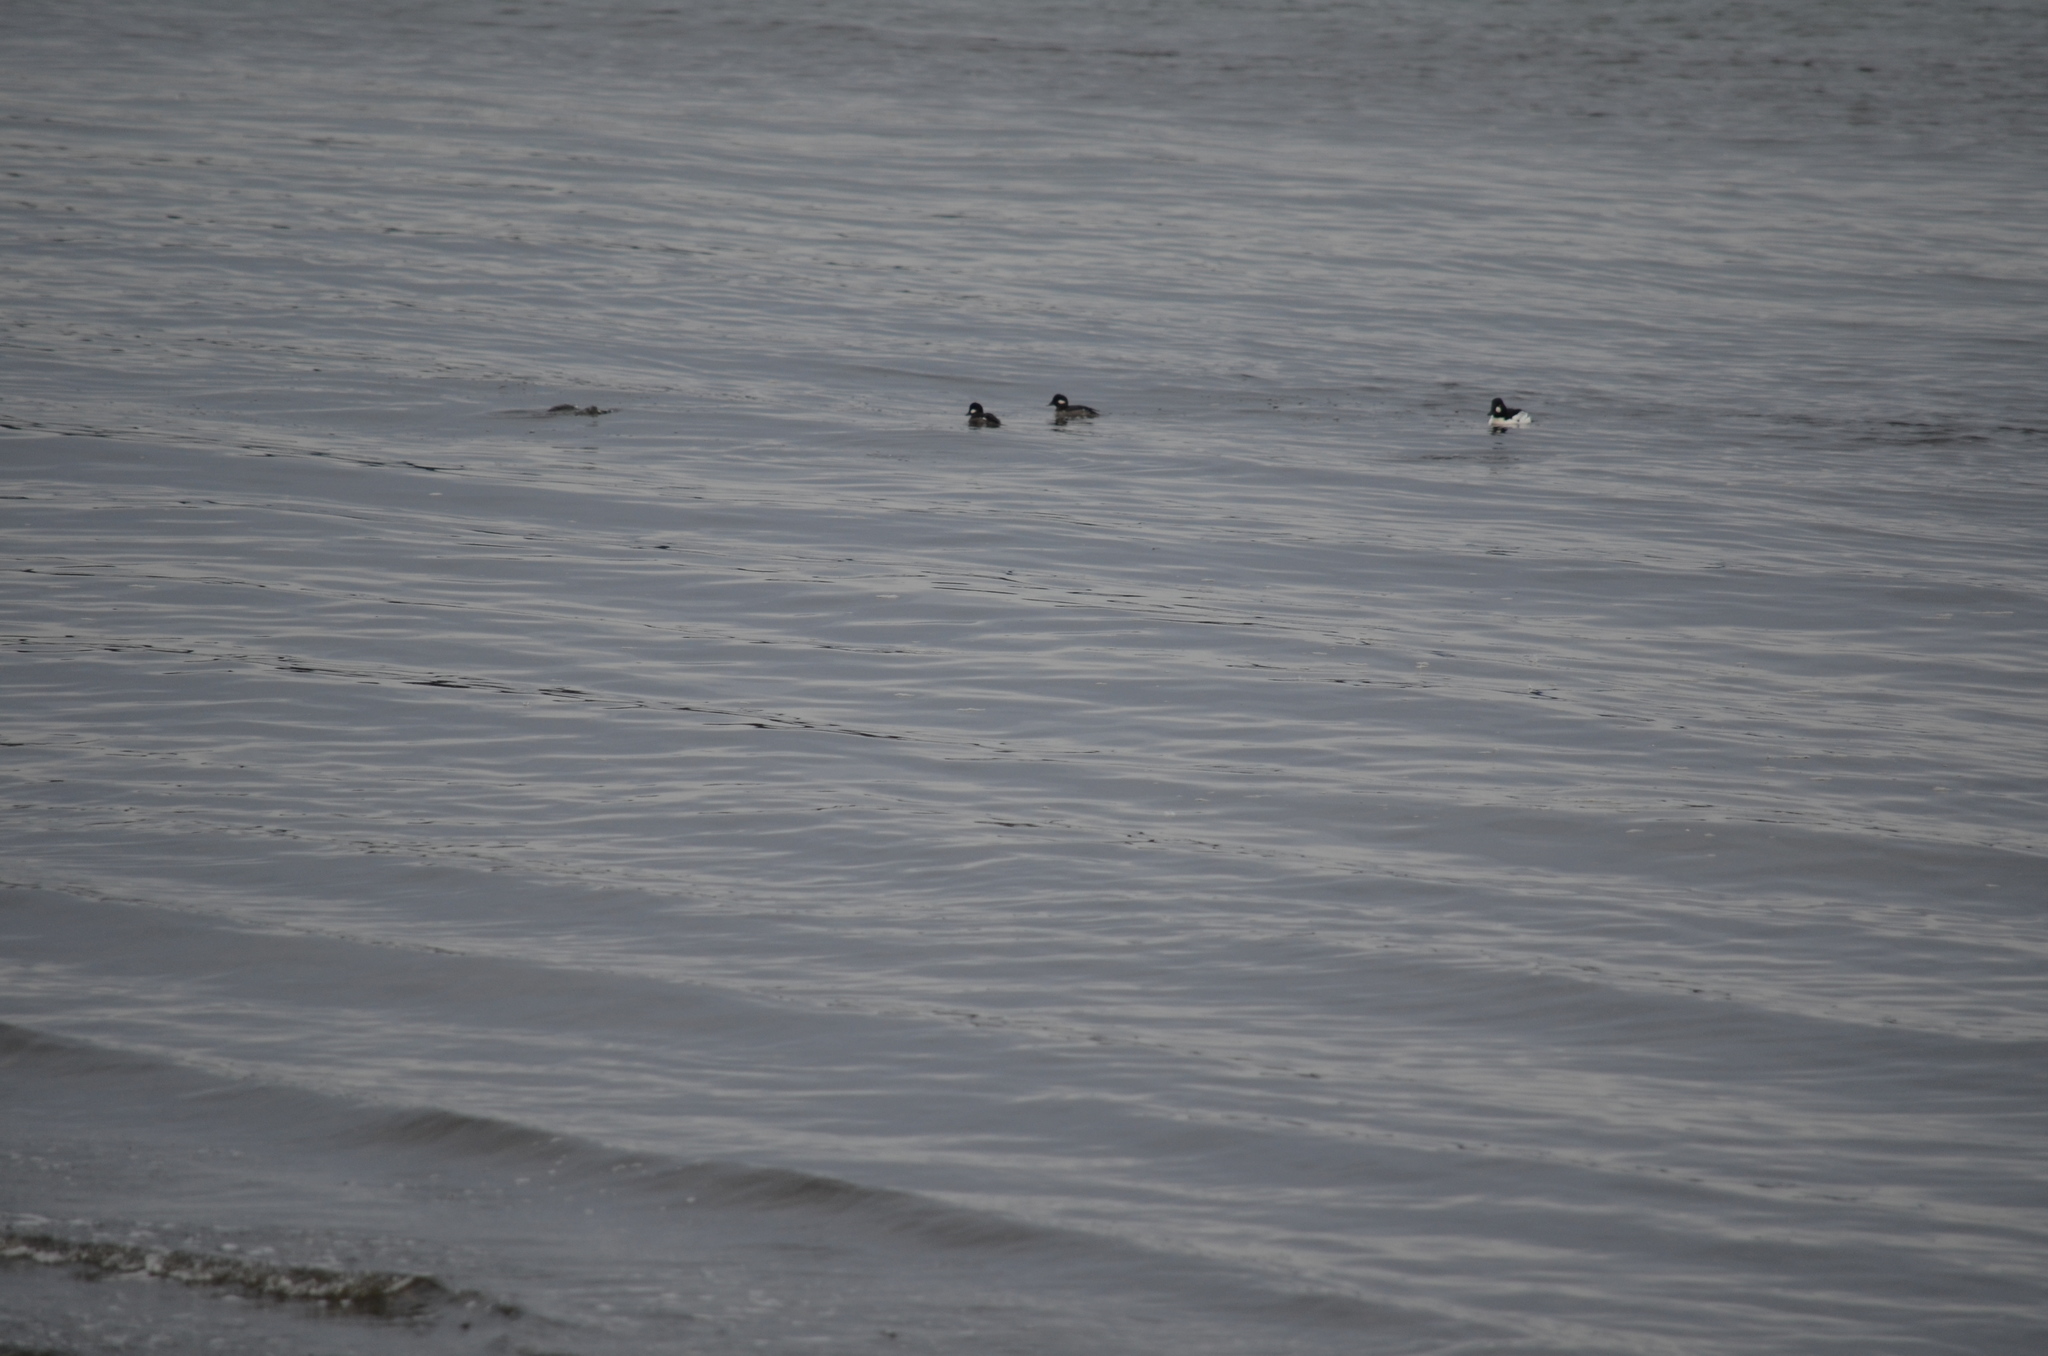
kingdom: Animalia
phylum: Chordata
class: Aves
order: Anseriformes
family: Anatidae
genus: Bucephala
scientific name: Bucephala albeola
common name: Bufflehead
